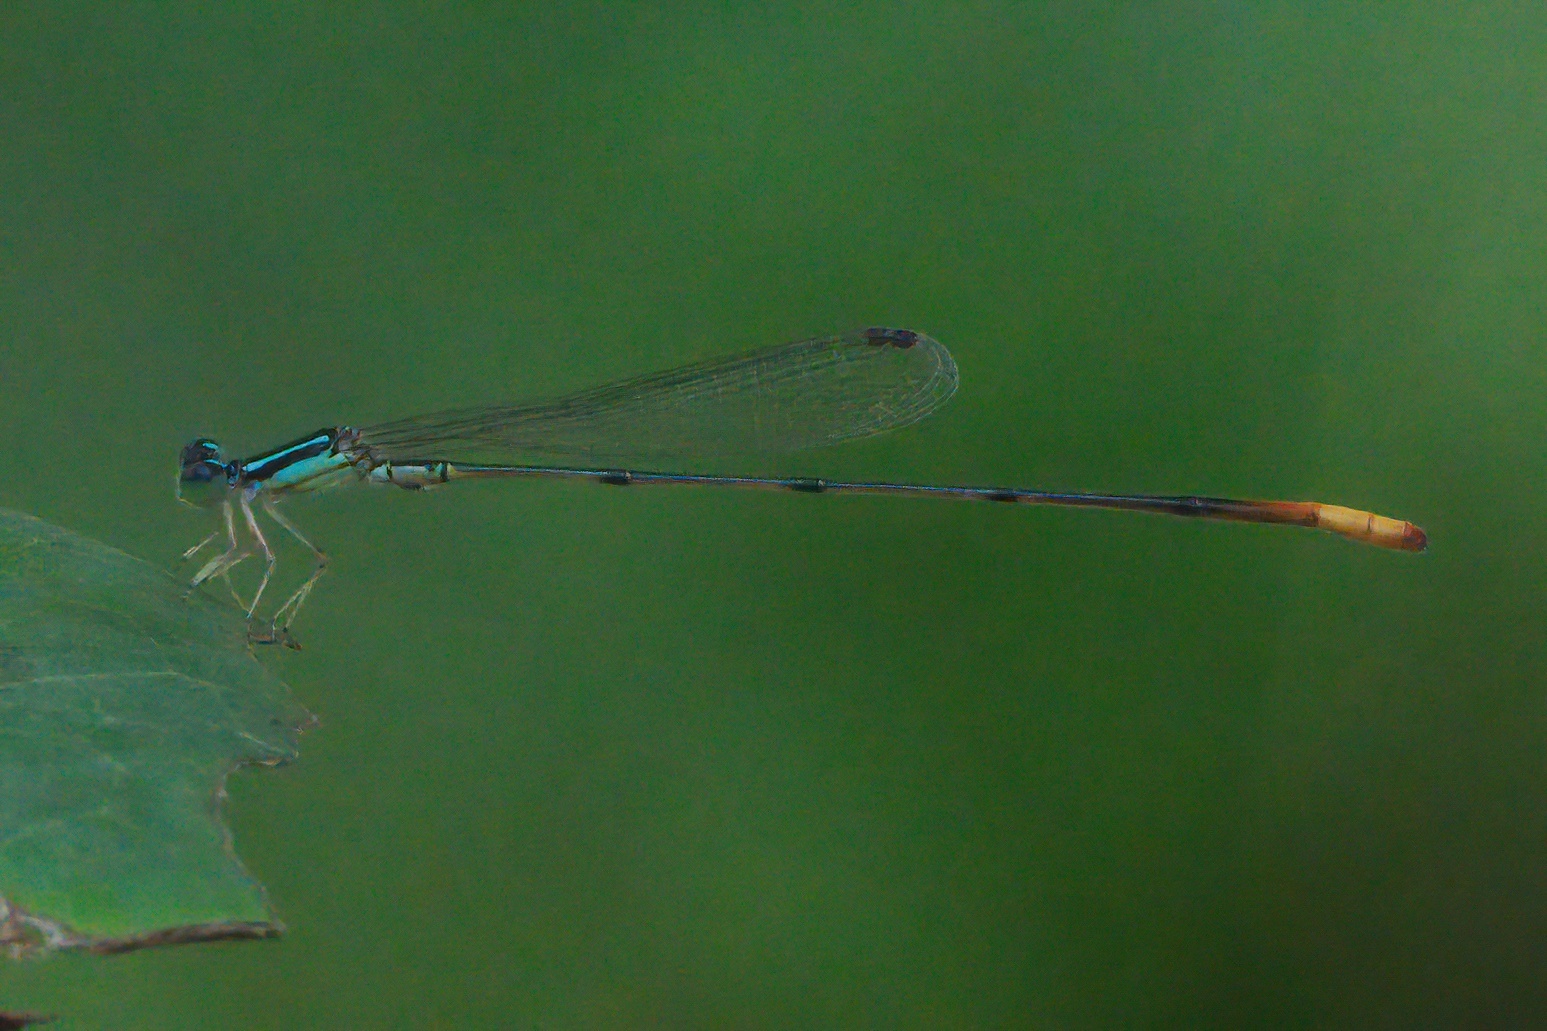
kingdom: Animalia
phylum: Arthropoda
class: Insecta
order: Odonata
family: Coenagrionidae
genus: Leptobasis
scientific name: Leptobasis lucifer
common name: Lucifer swampdamsel
